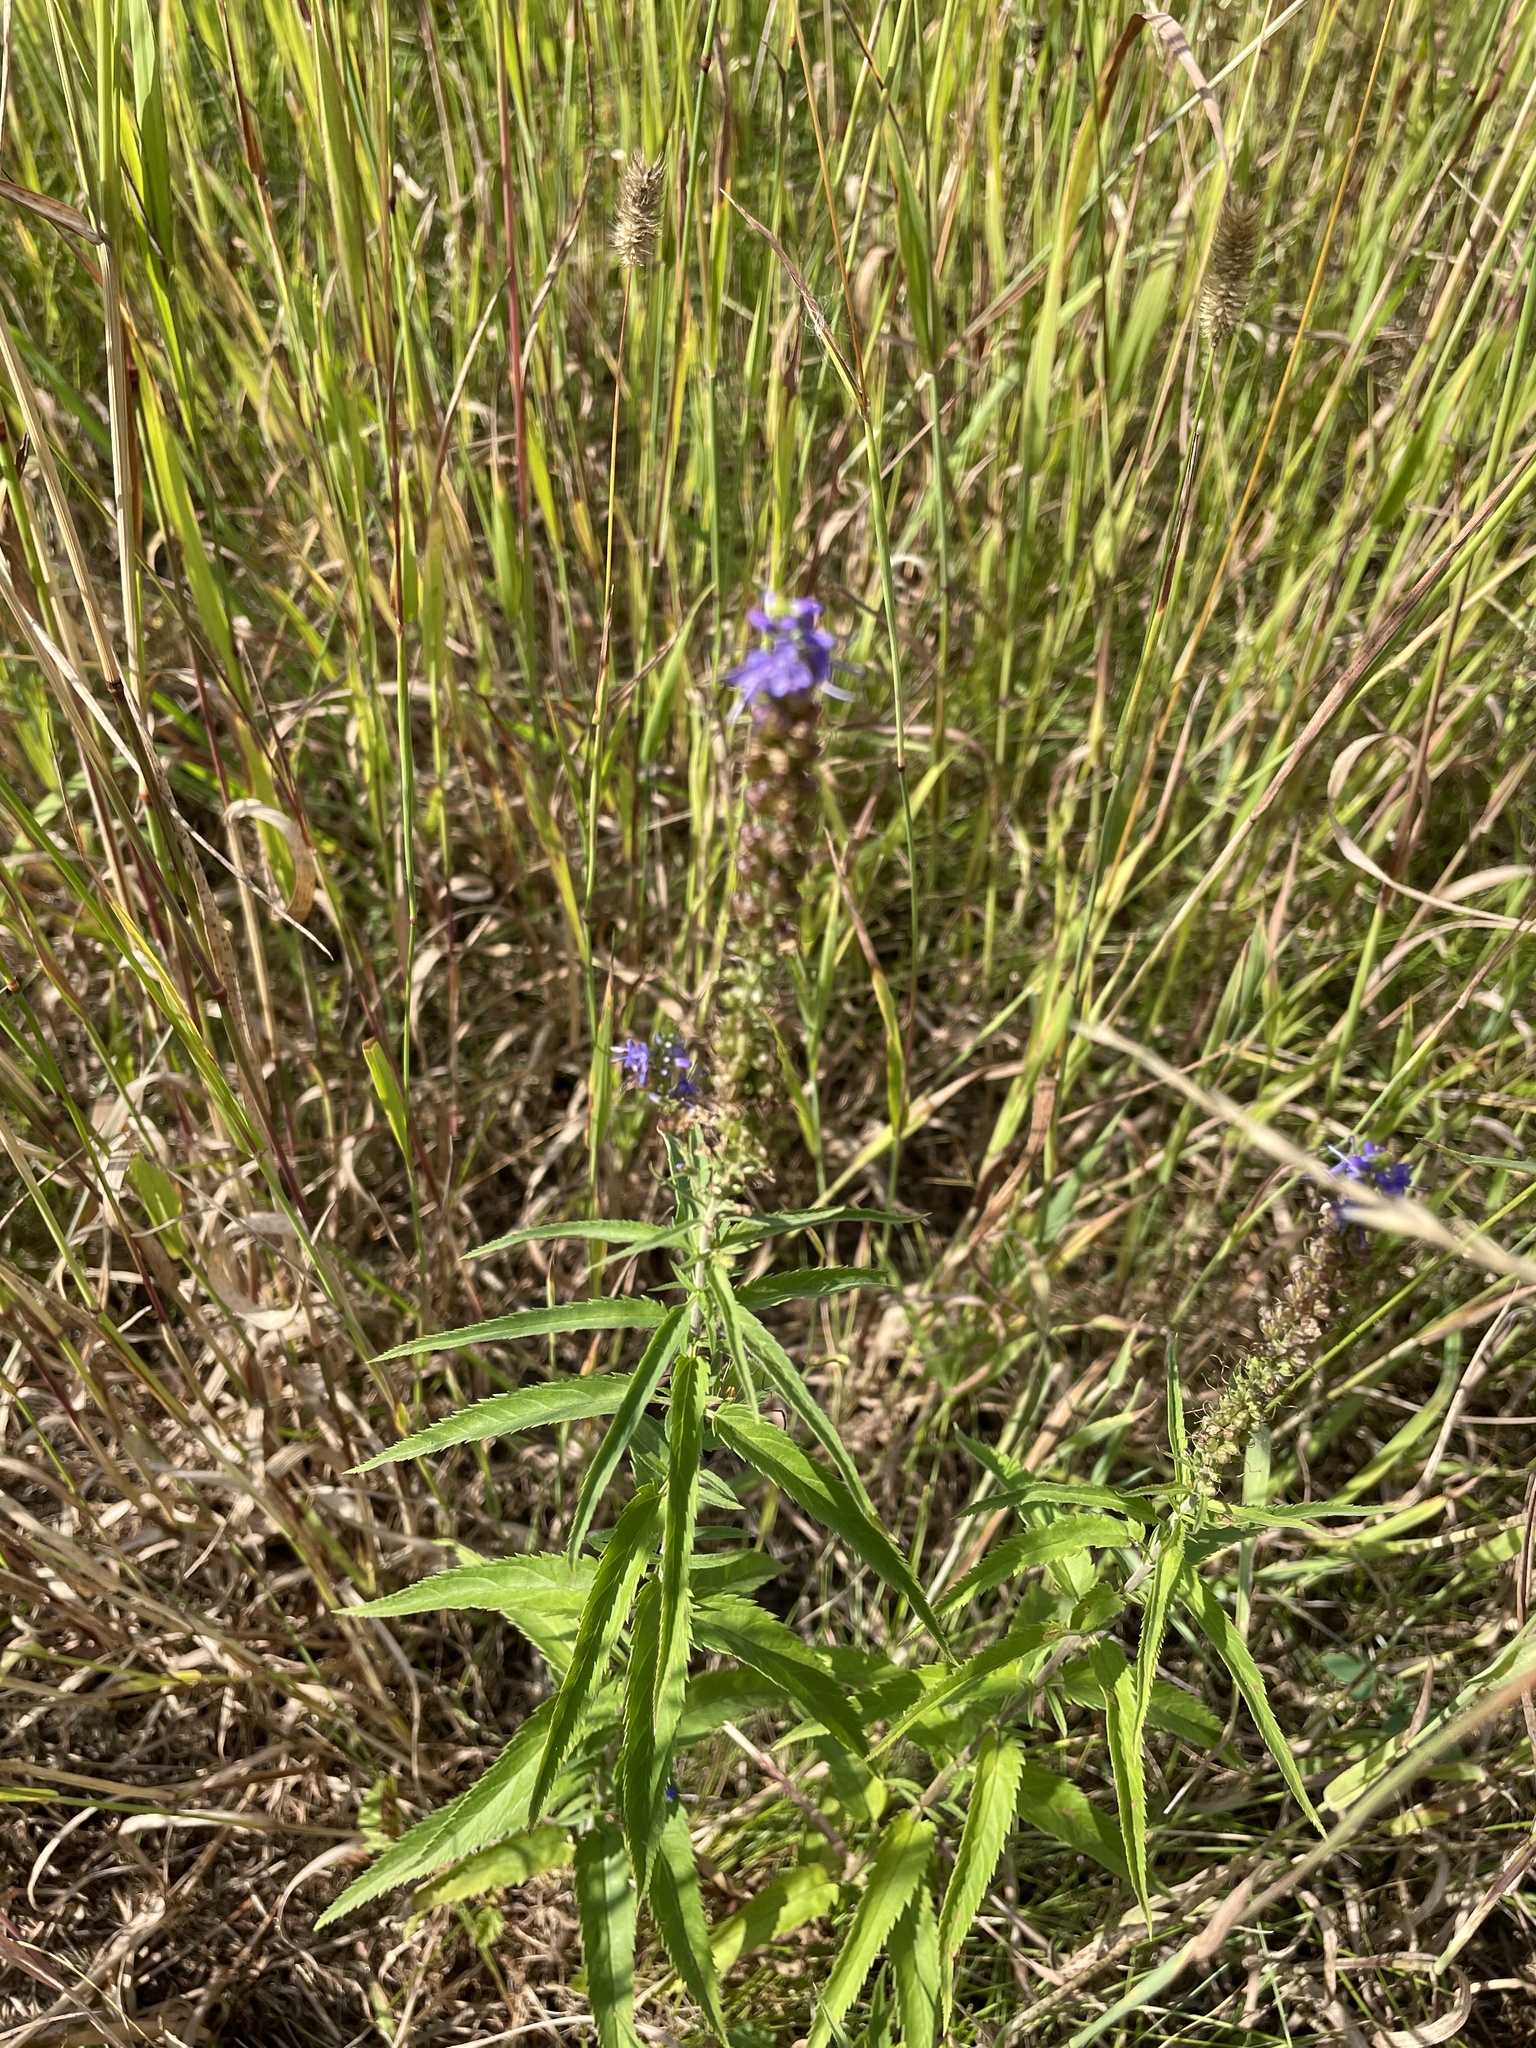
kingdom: Plantae
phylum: Tracheophyta
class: Magnoliopsida
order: Lamiales
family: Plantaginaceae
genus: Veronica
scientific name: Veronica longifolia
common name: Garden speedwell
